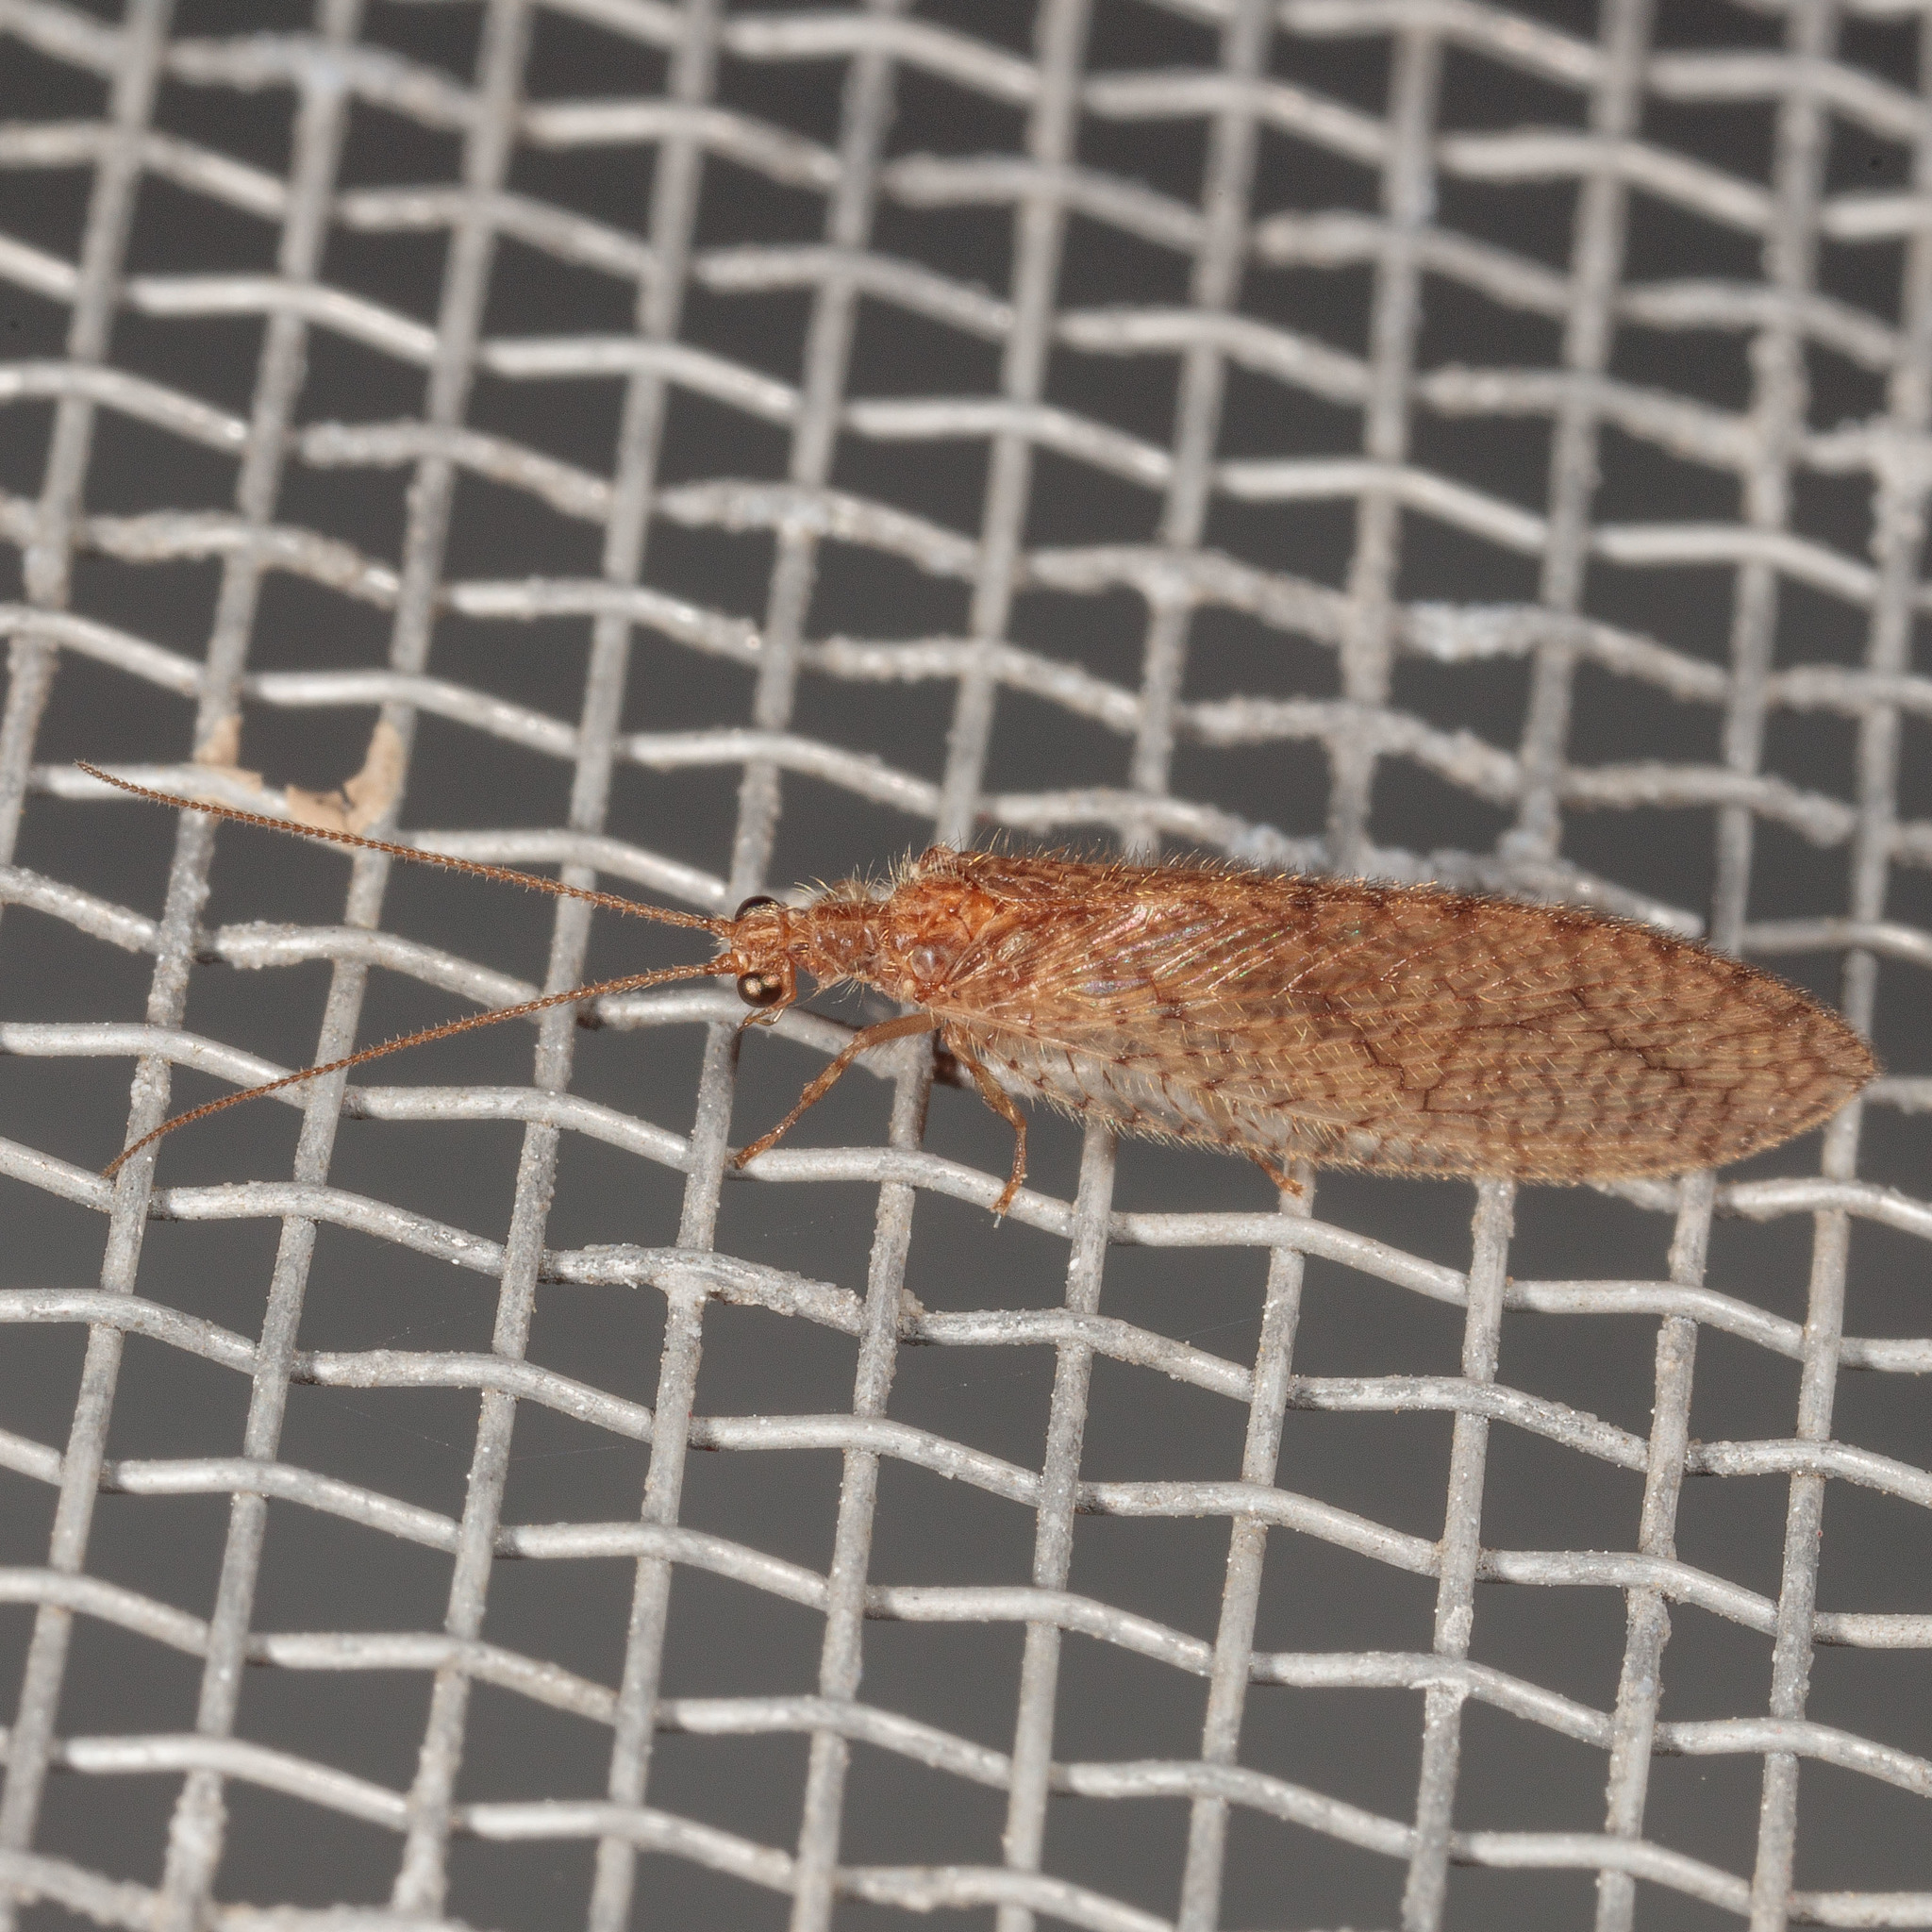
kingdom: Animalia
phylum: Arthropoda
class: Insecta
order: Neuroptera
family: Hemerobiidae
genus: Micromus
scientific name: Micromus posticus
